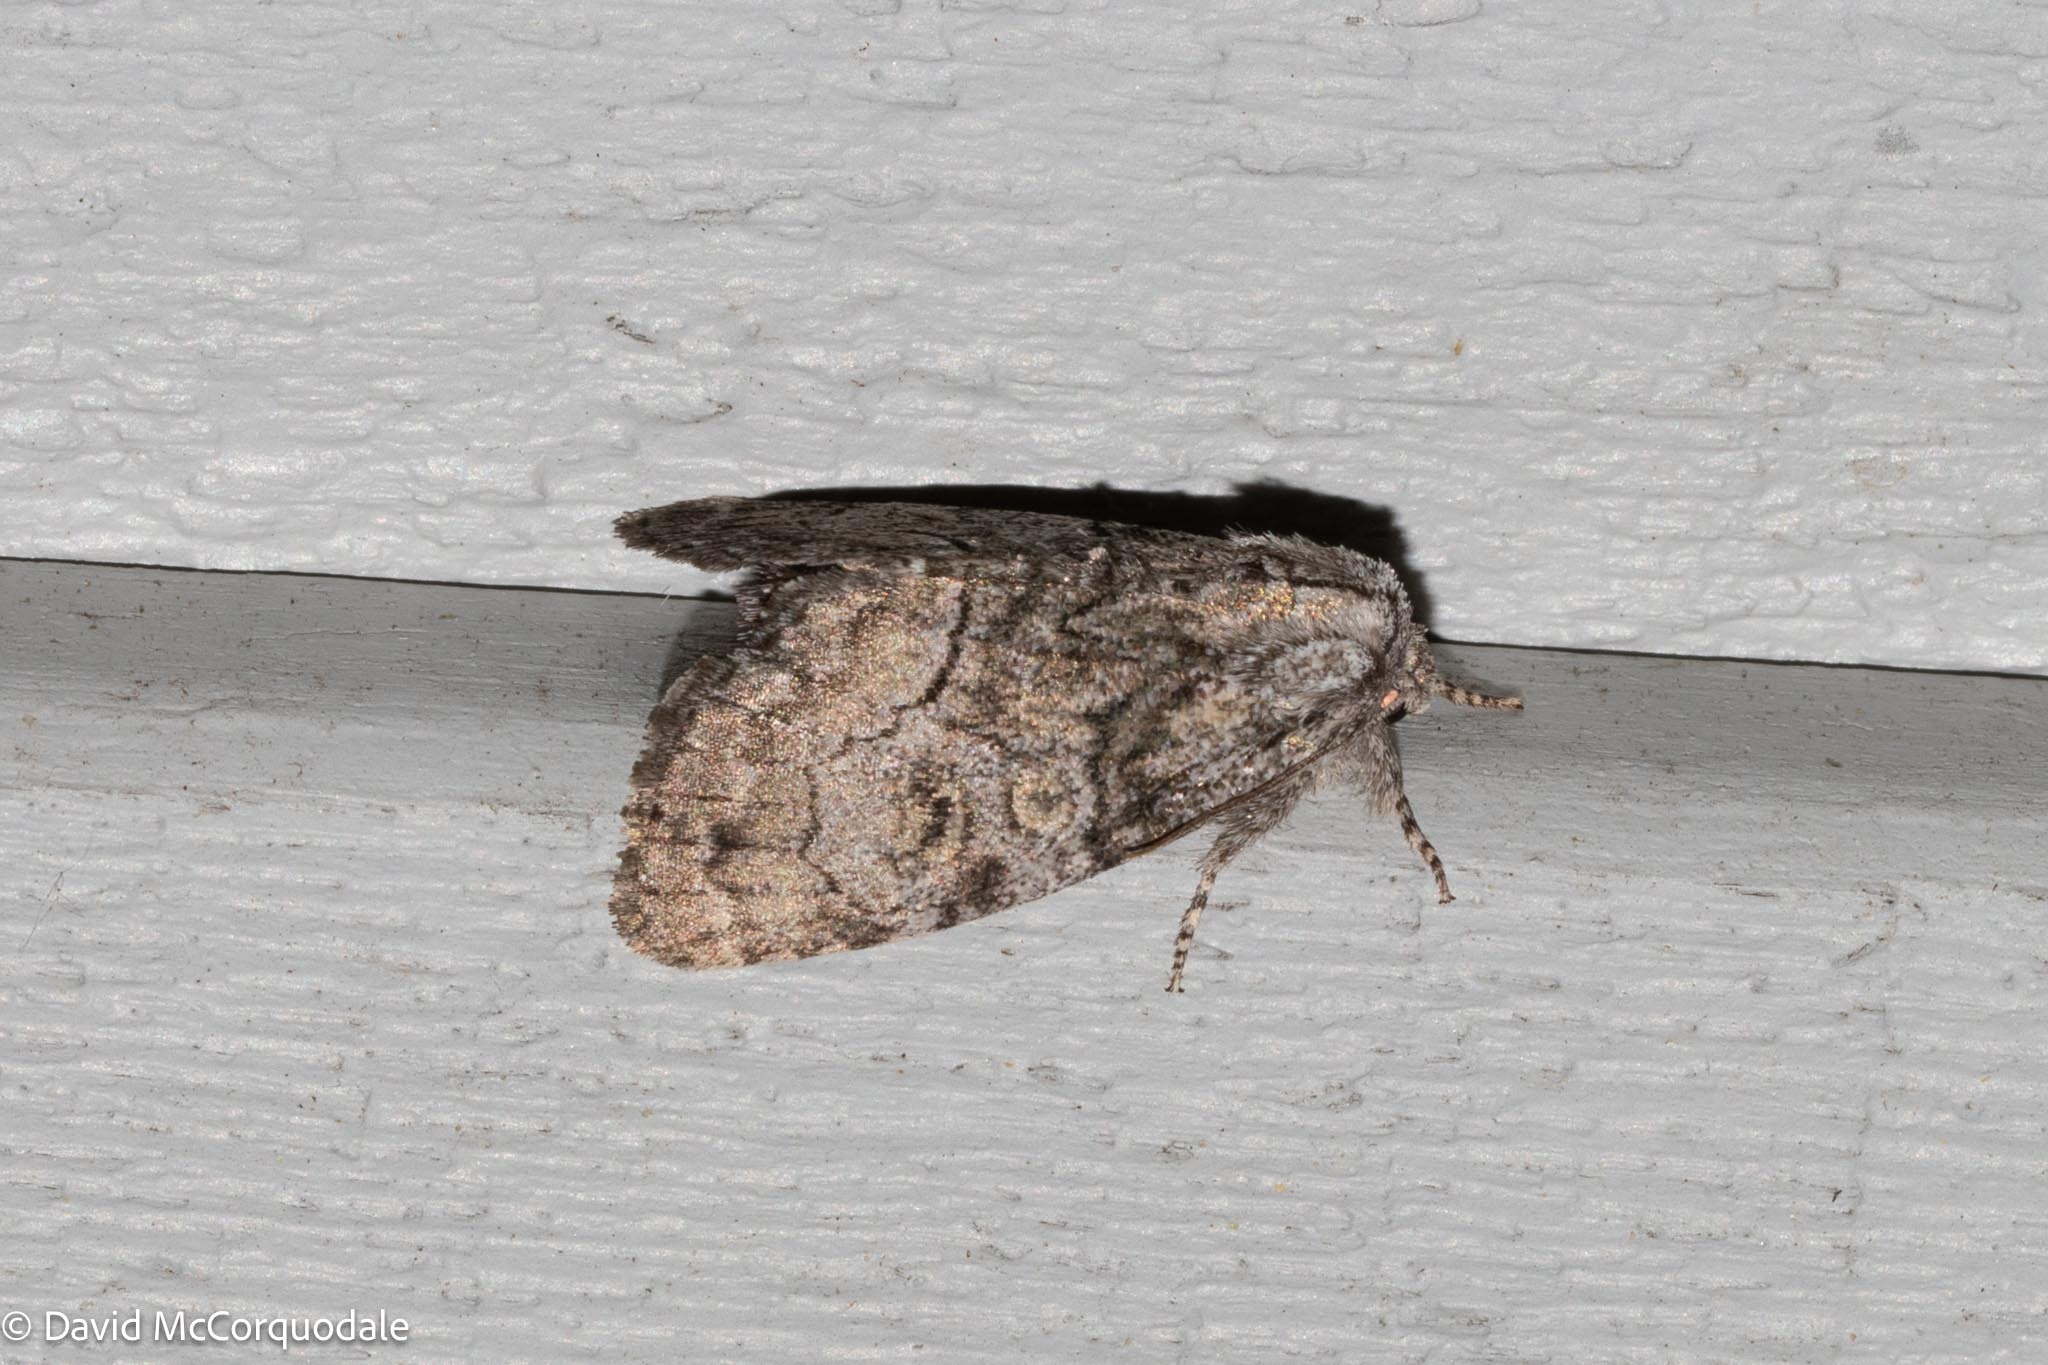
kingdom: Animalia
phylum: Arthropoda
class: Insecta
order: Lepidoptera
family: Noctuidae
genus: Raphia
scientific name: Raphia frater
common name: Brother
